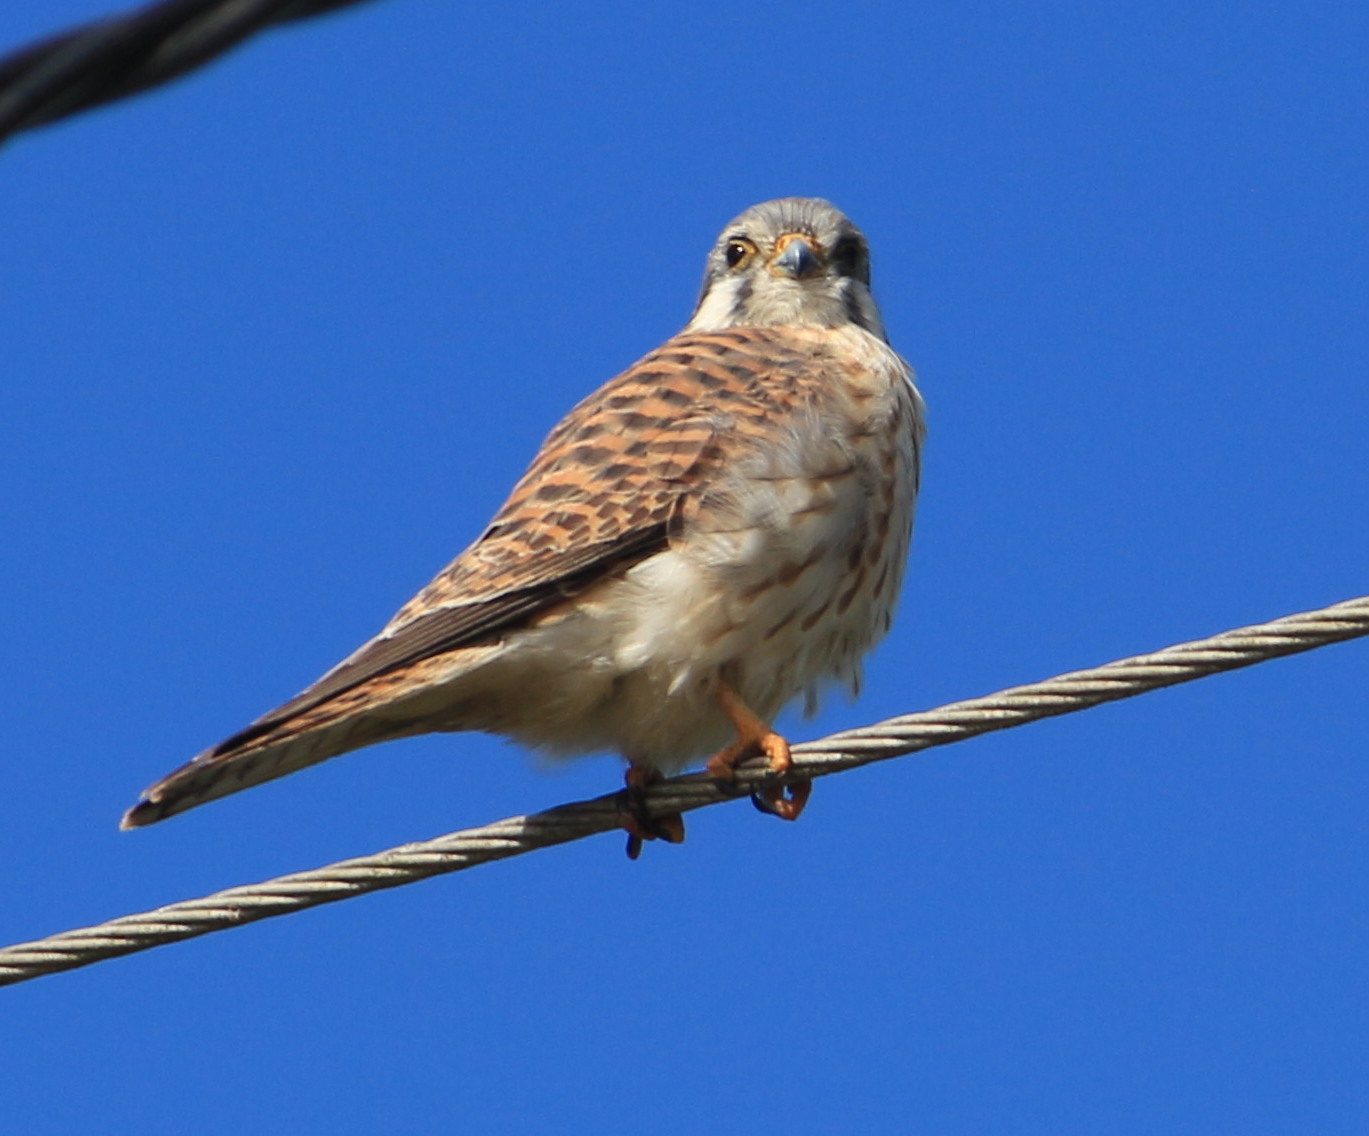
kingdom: Animalia
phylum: Chordata
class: Aves
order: Falconiformes
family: Falconidae
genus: Falco
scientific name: Falco sparverius
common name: American kestrel
